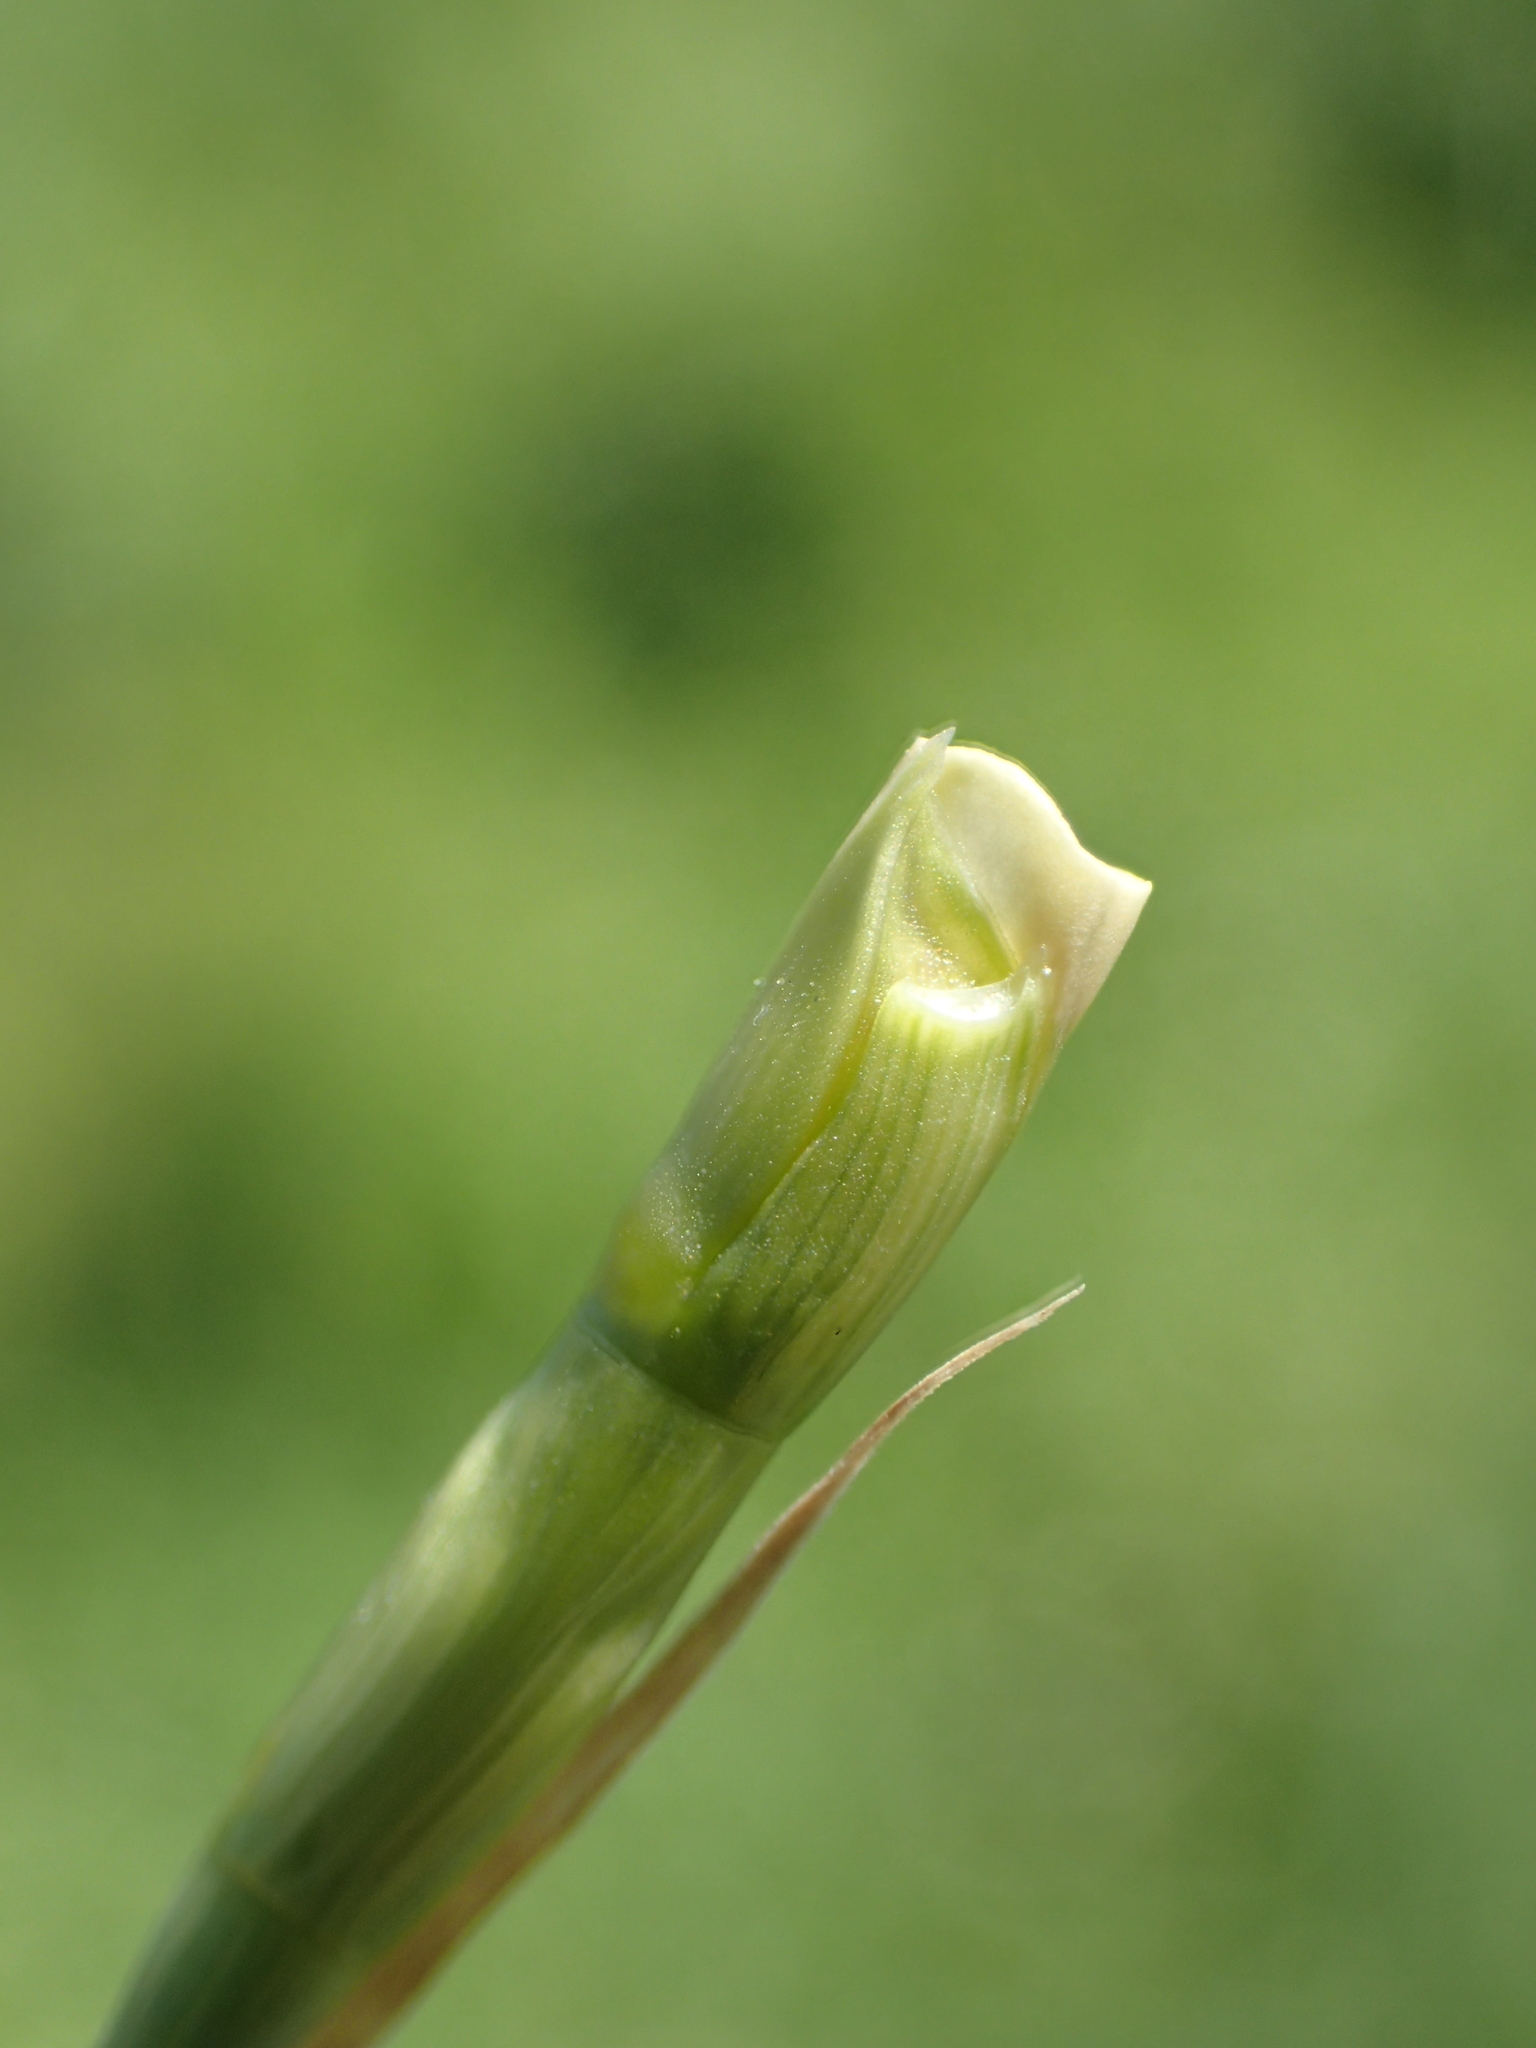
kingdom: Plantae
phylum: Tracheophyta
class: Liliopsida
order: Poales
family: Poaceae
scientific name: Poaceae
